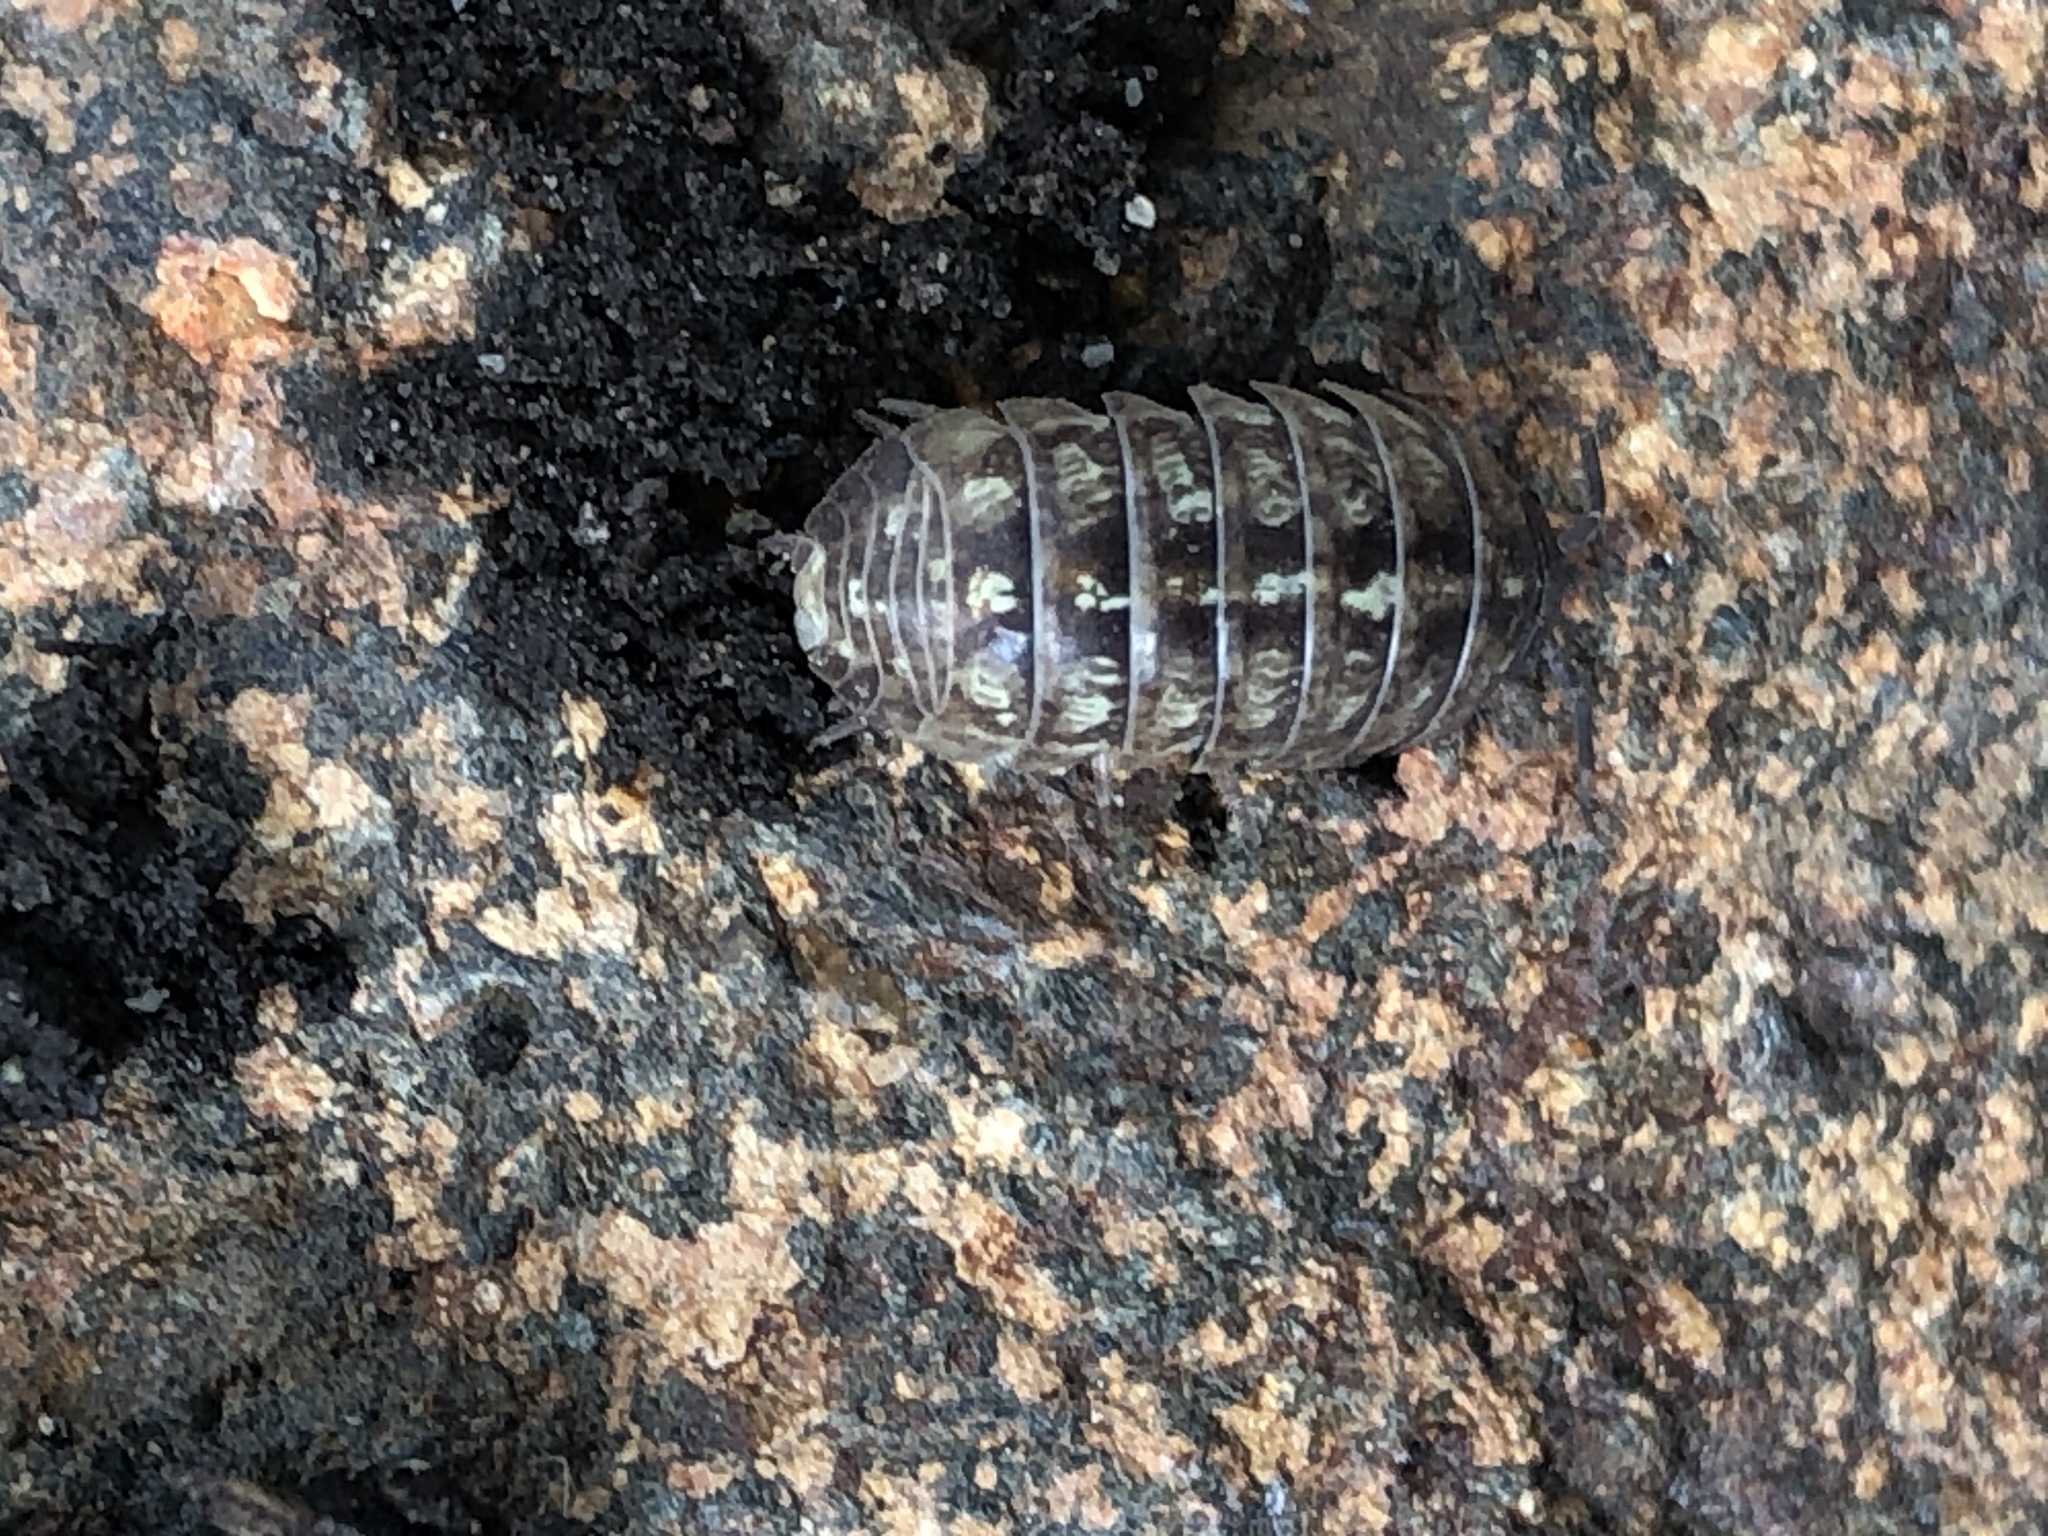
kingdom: Animalia
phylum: Arthropoda
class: Malacostraca
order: Isopoda
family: Armadillidiidae
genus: Armadillidium
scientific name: Armadillidium vulgare
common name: Common pill woodlouse
